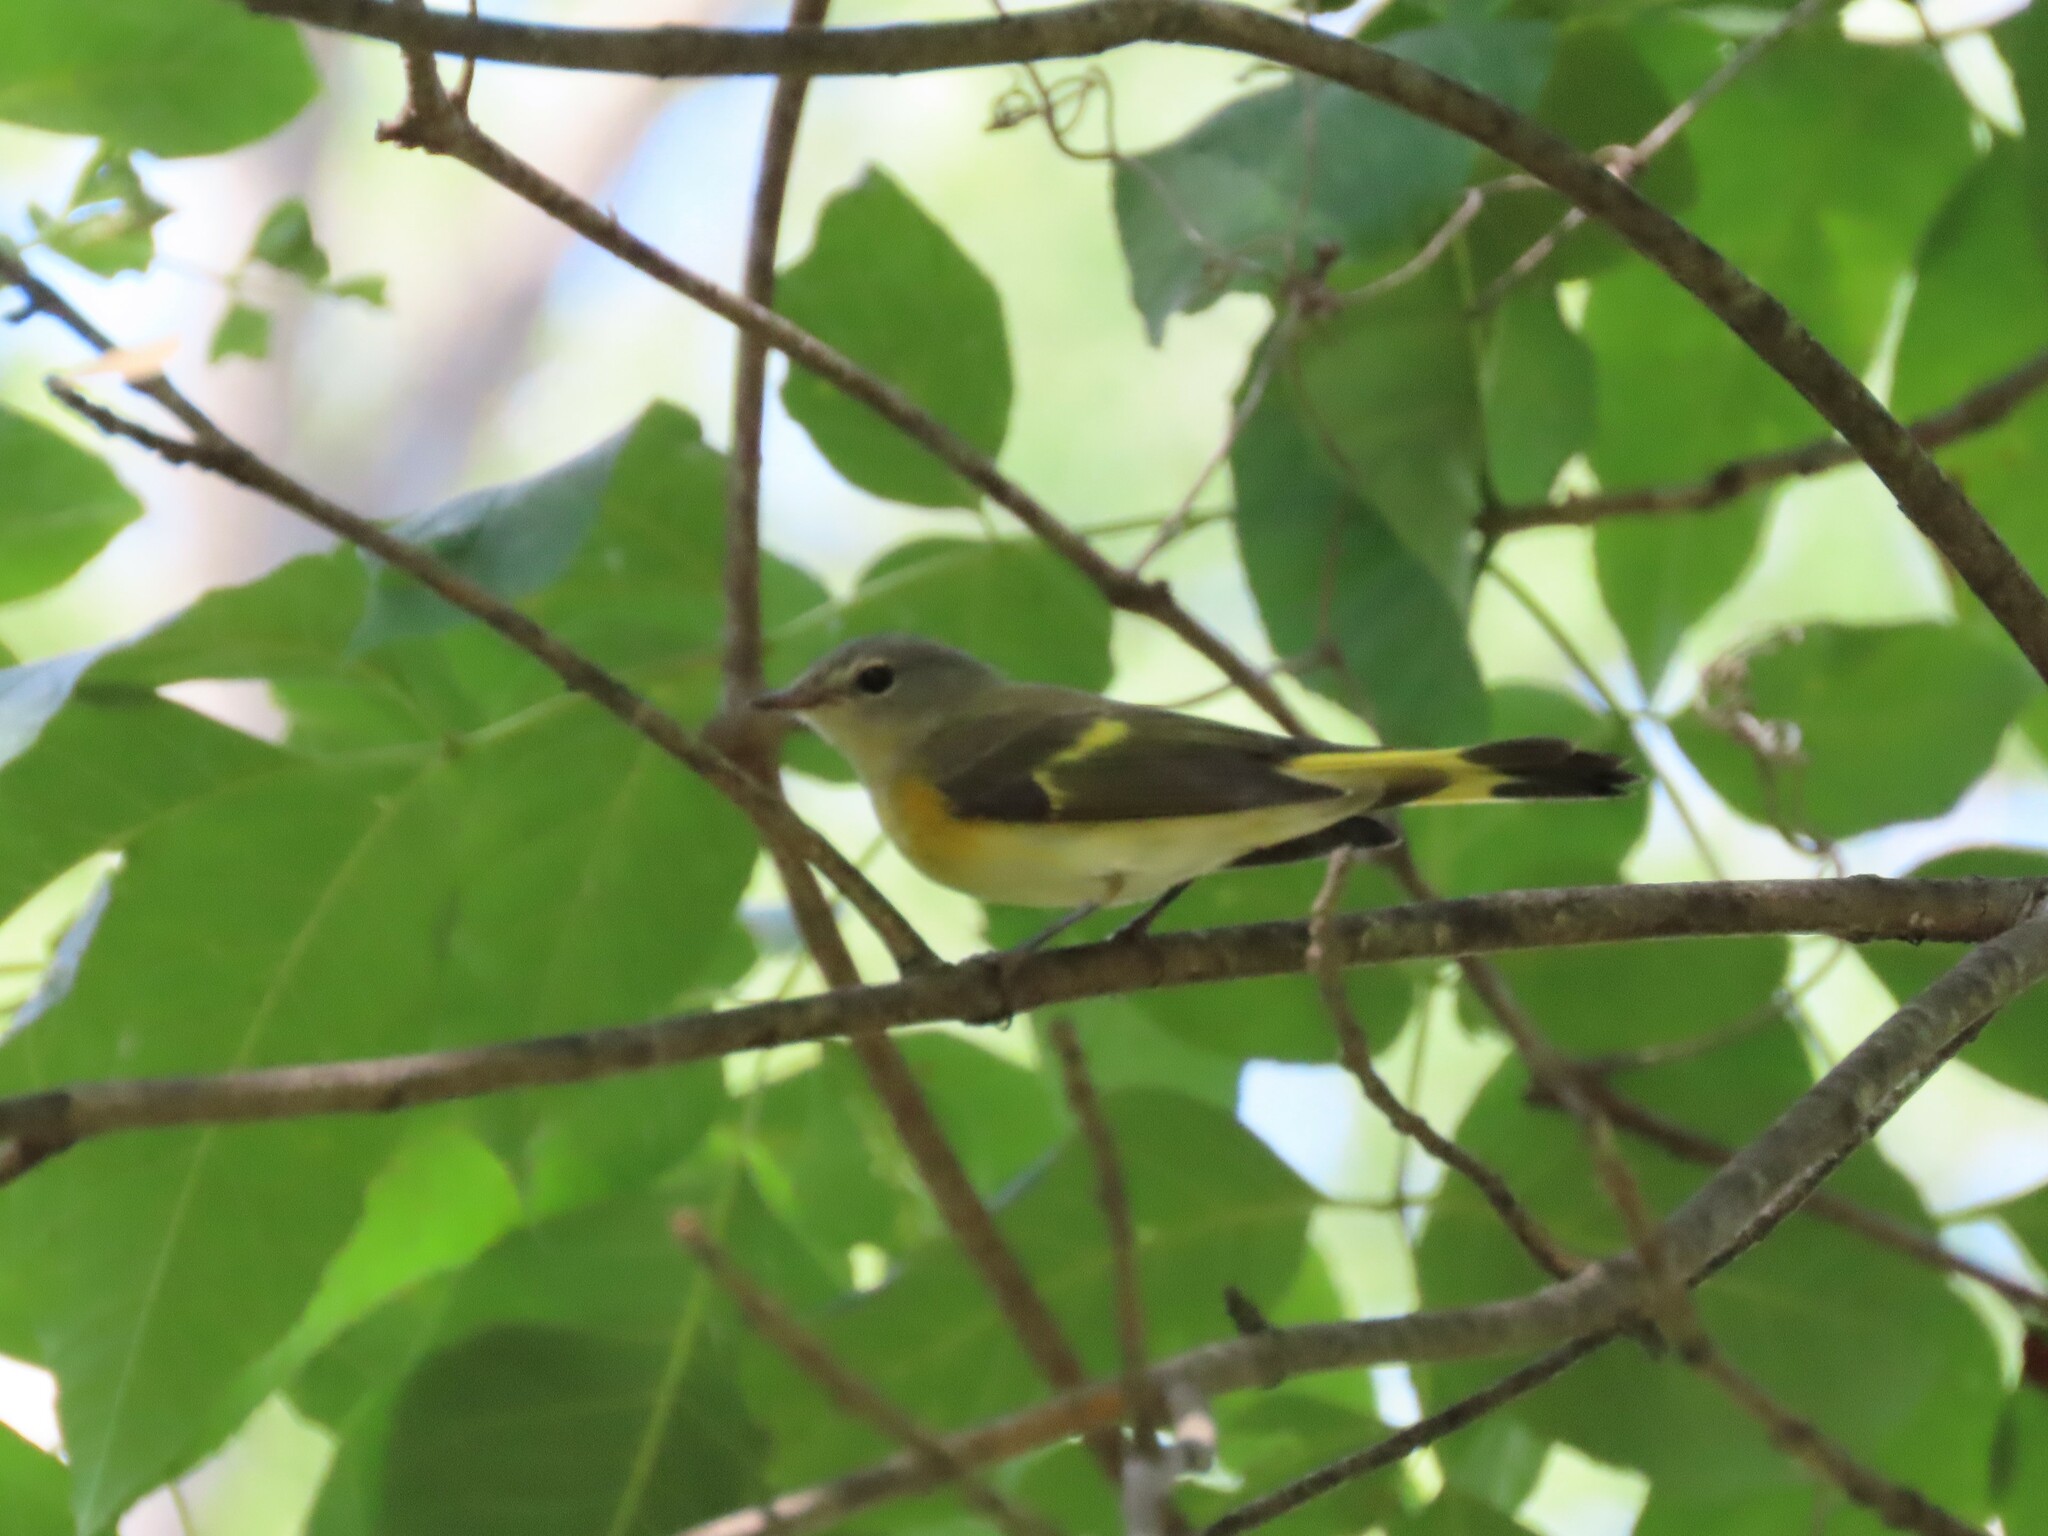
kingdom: Animalia
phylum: Chordata
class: Aves
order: Passeriformes
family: Parulidae
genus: Setophaga
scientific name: Setophaga ruticilla
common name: American redstart
